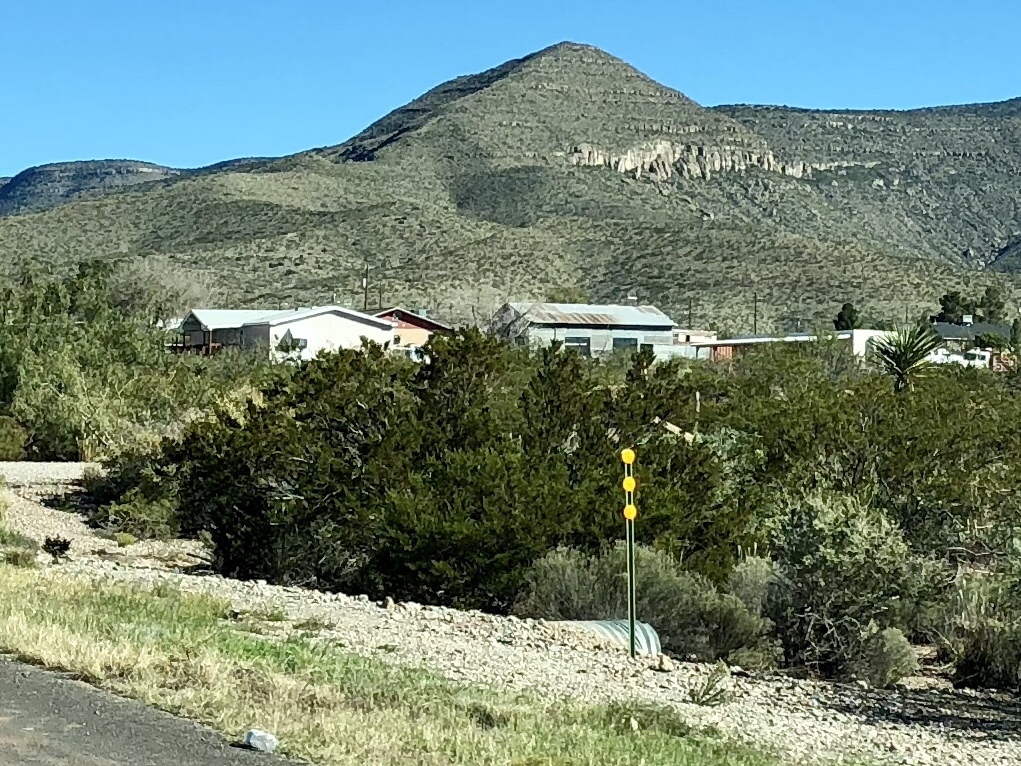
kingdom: Plantae
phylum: Tracheophyta
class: Magnoliopsida
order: Zygophyllales
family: Zygophyllaceae
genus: Larrea
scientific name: Larrea tridentata
